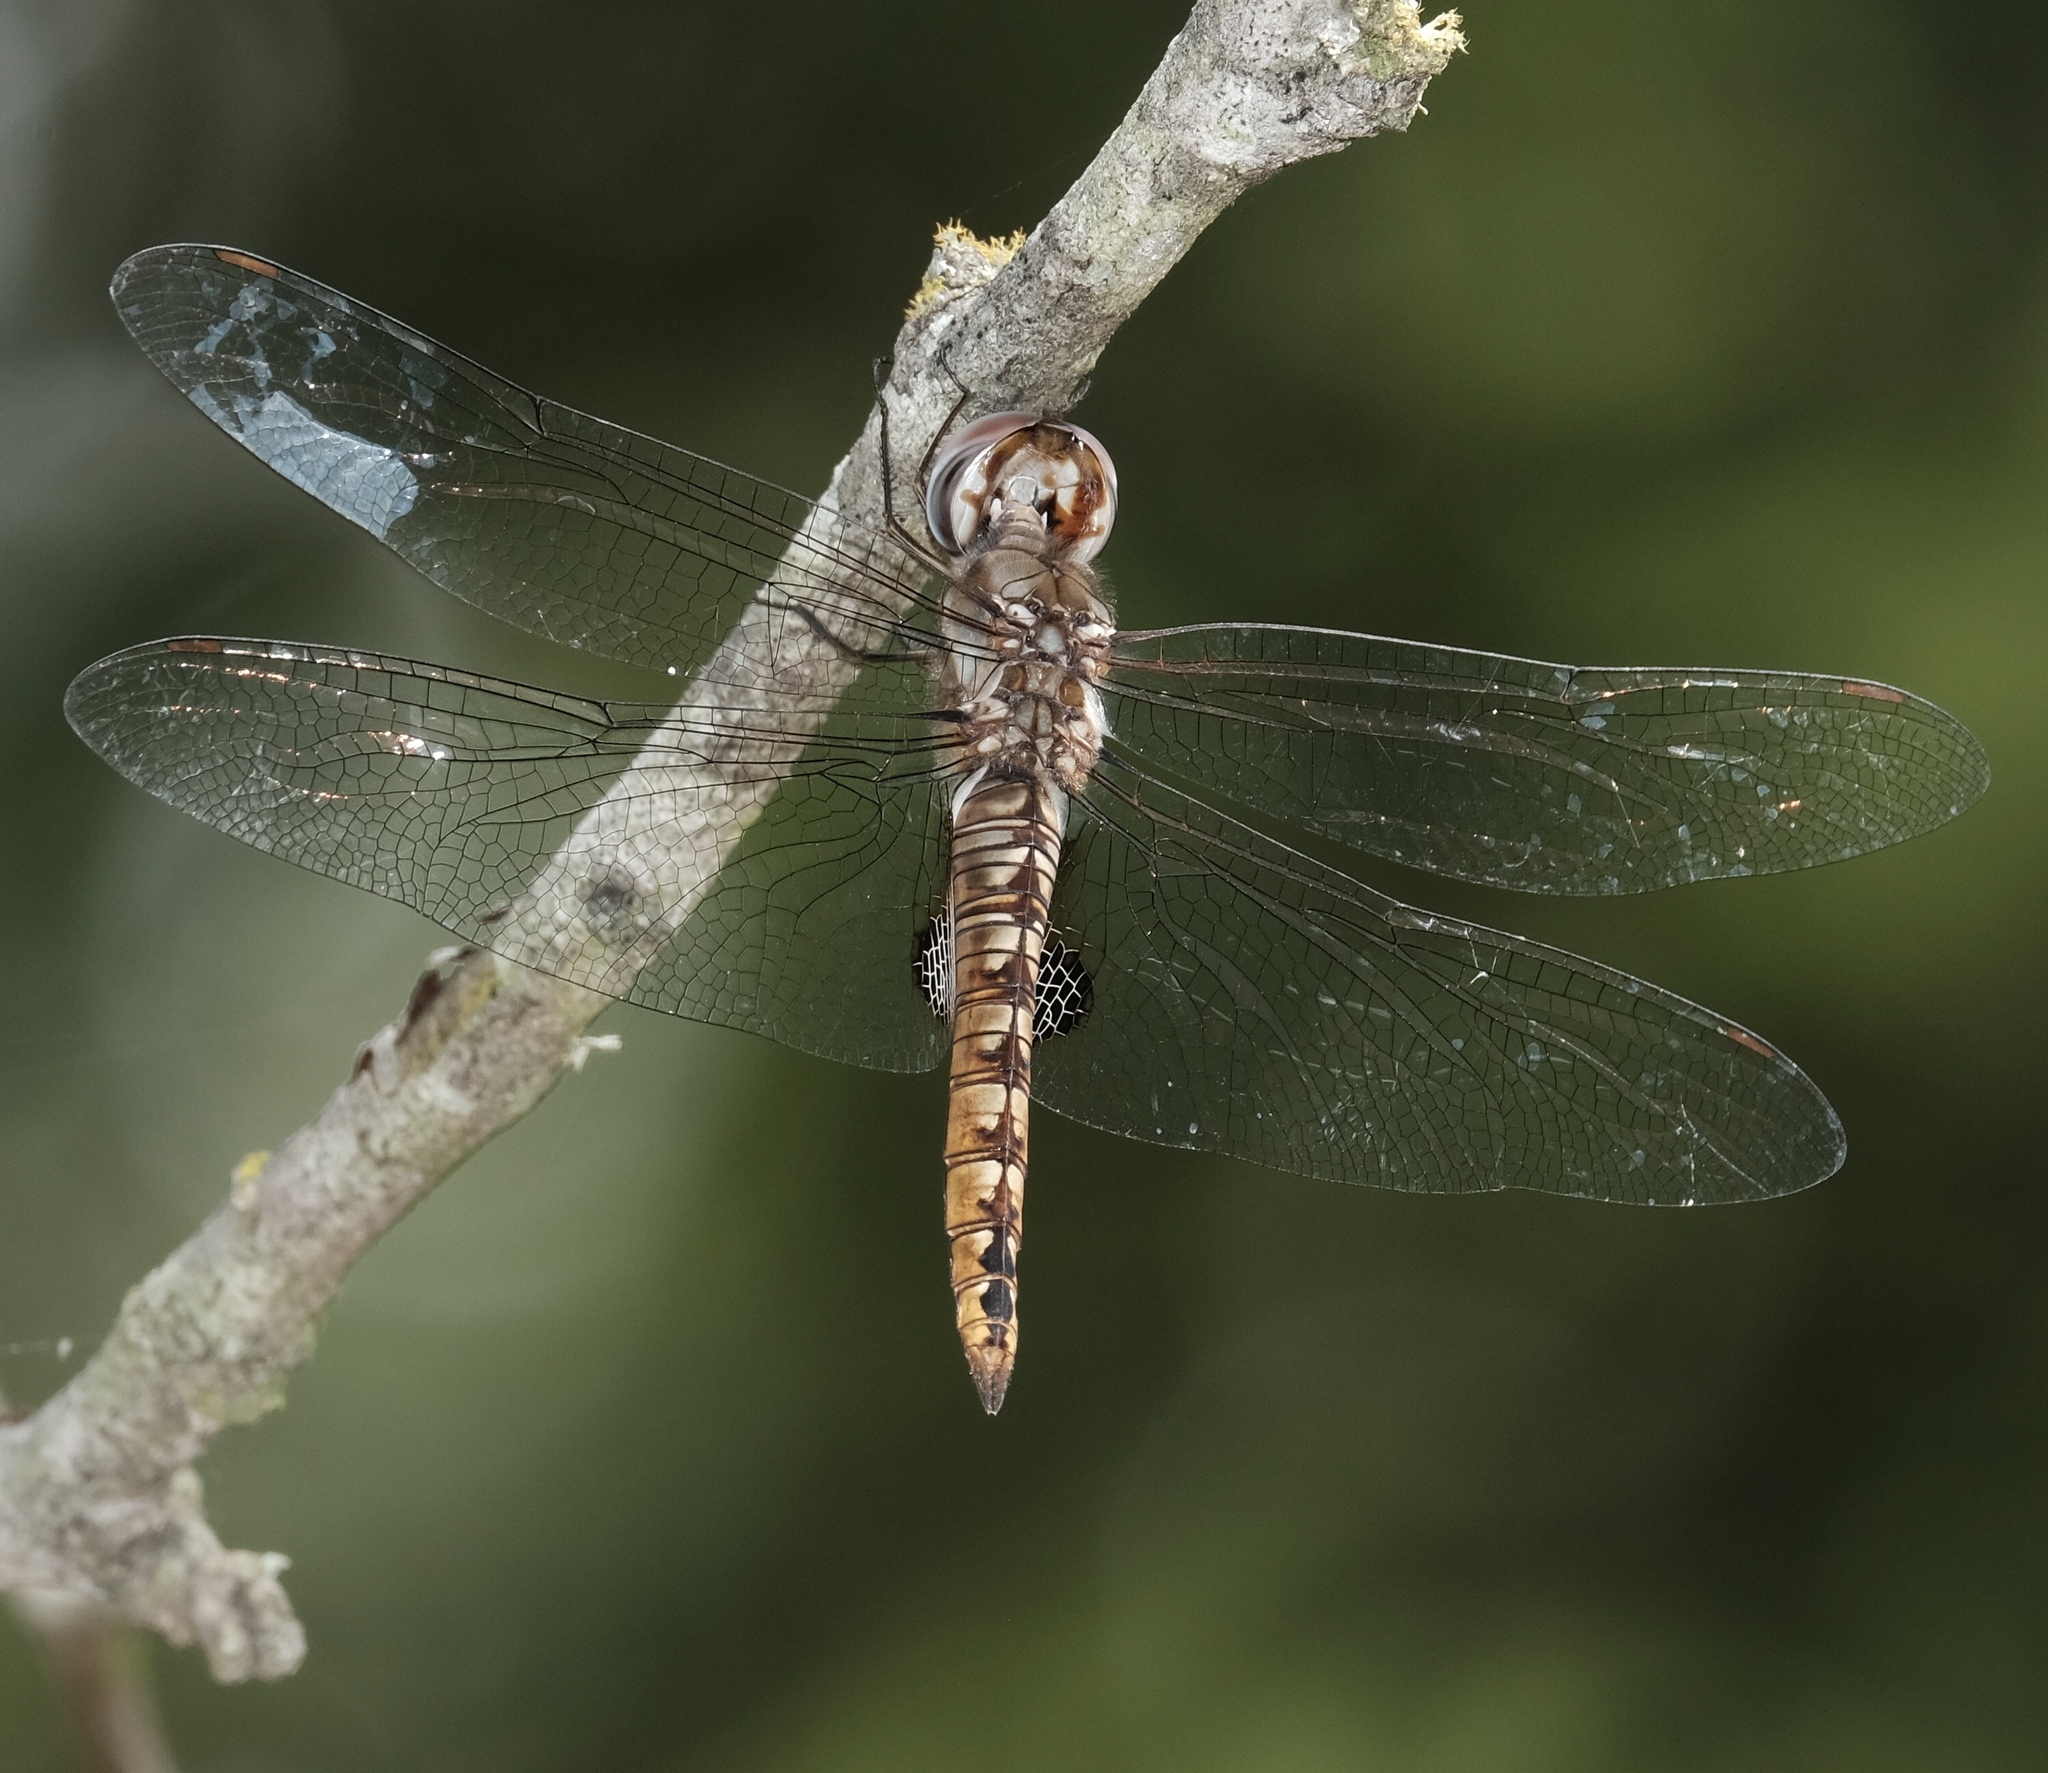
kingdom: Animalia
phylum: Arthropoda
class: Insecta
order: Odonata
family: Libellulidae
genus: Pantala
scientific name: Pantala hymenaea
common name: Spot-winged glider
